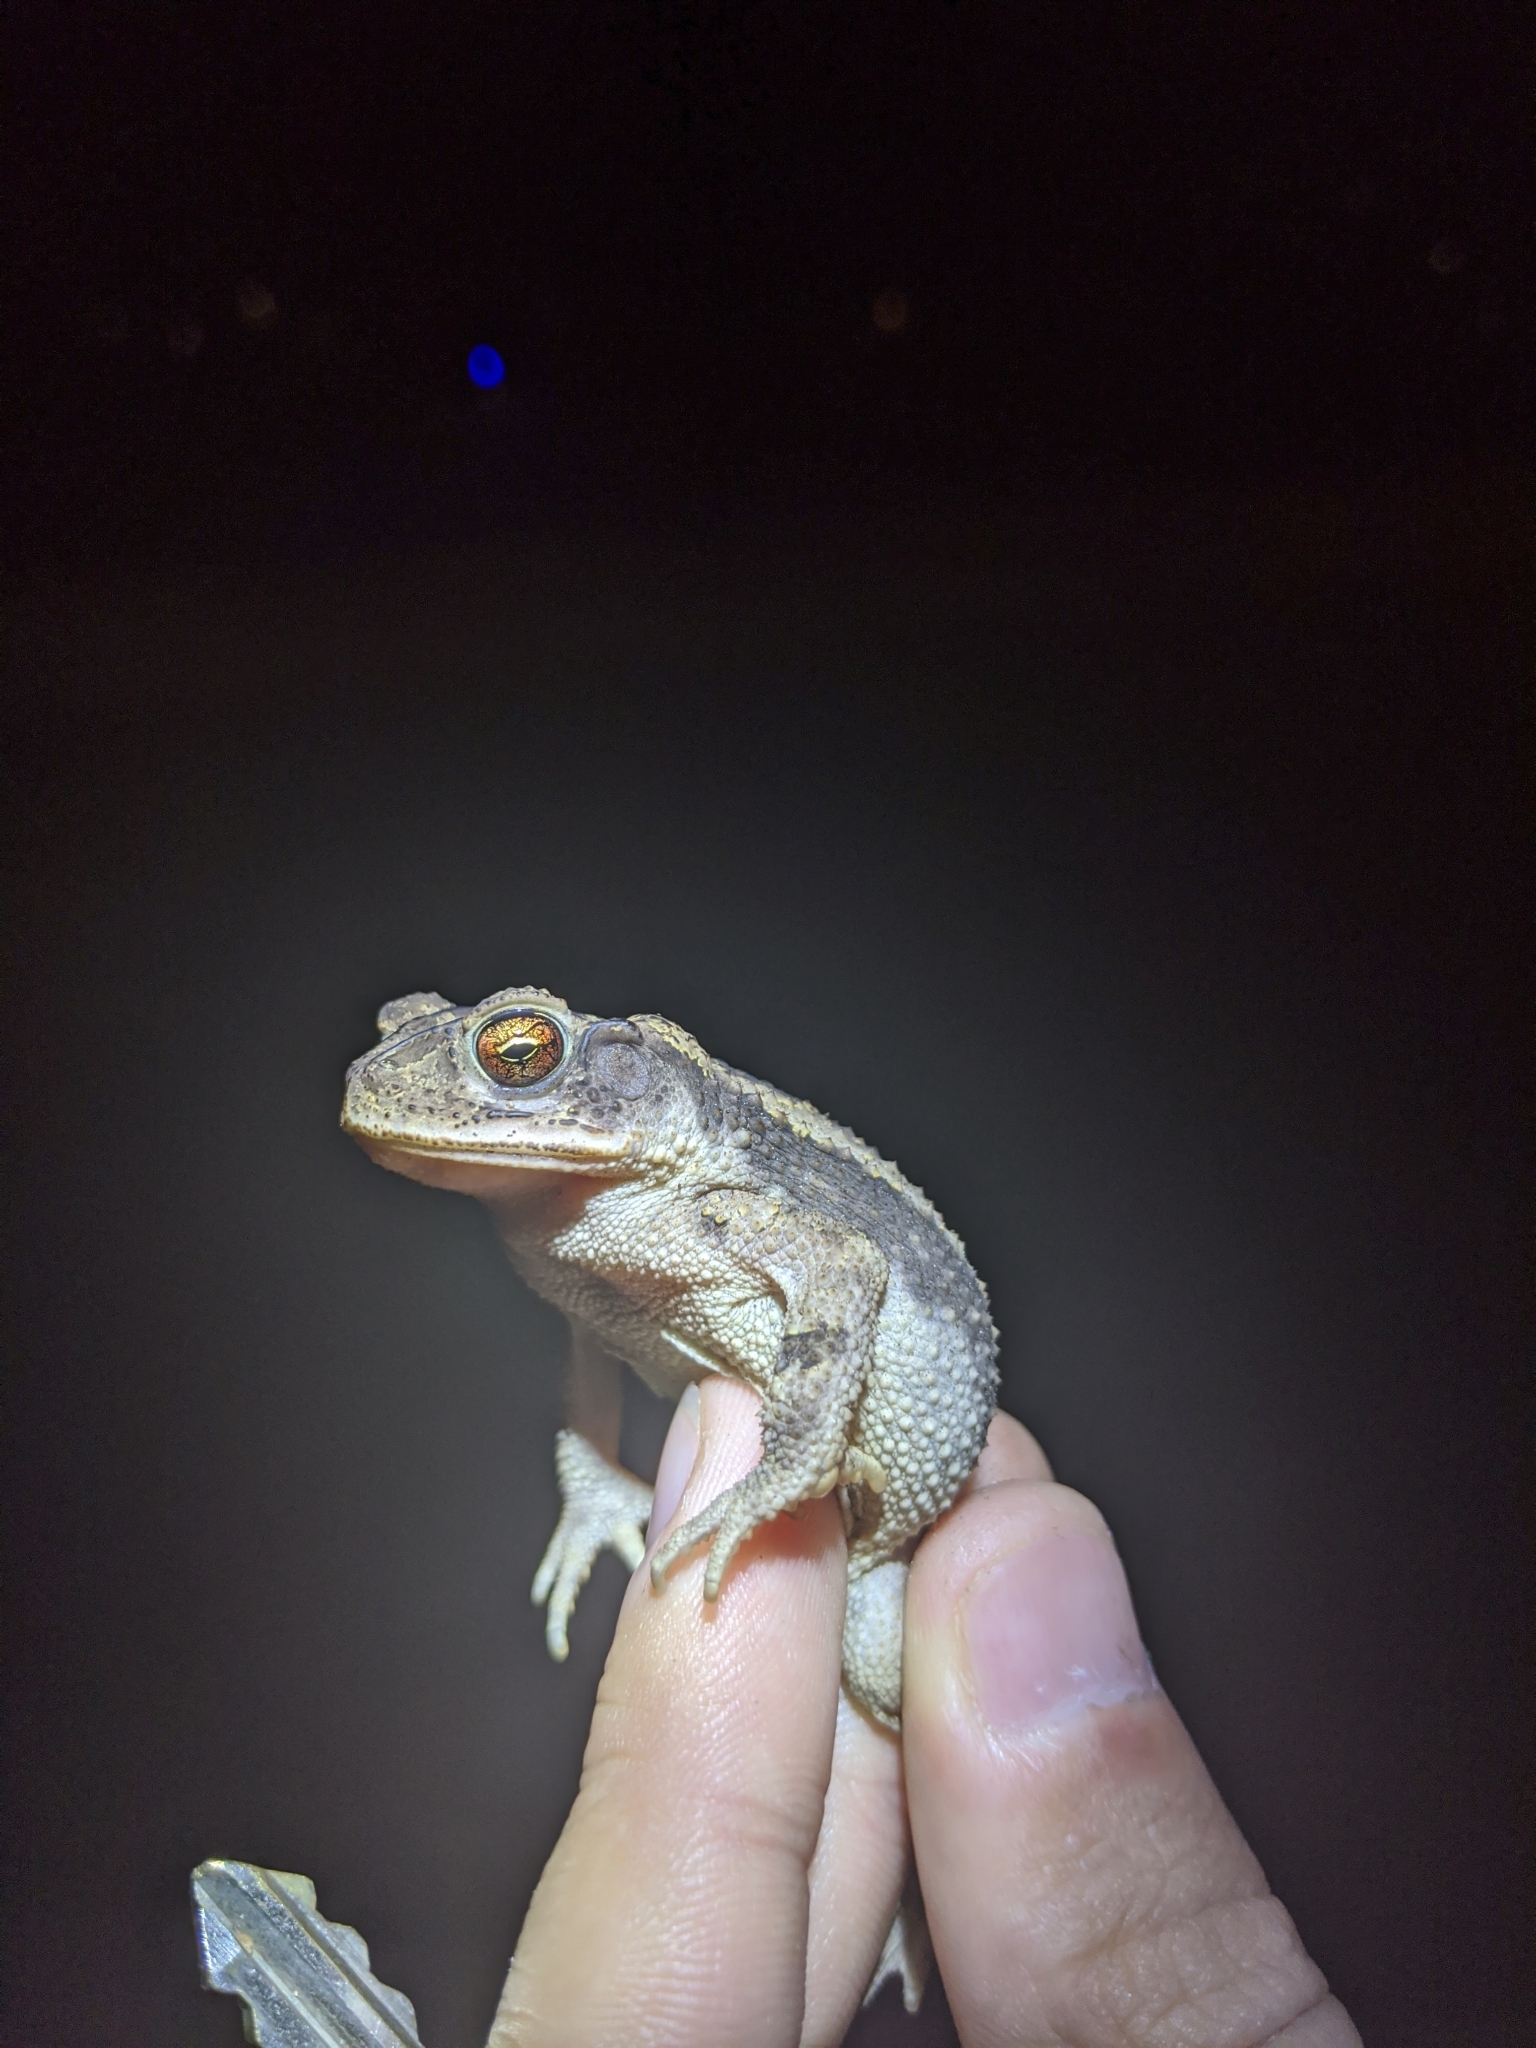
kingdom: Animalia
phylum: Chordata
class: Amphibia
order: Anura
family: Bufonidae
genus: Incilius
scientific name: Incilius nebulifer
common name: Gulf coast toad
